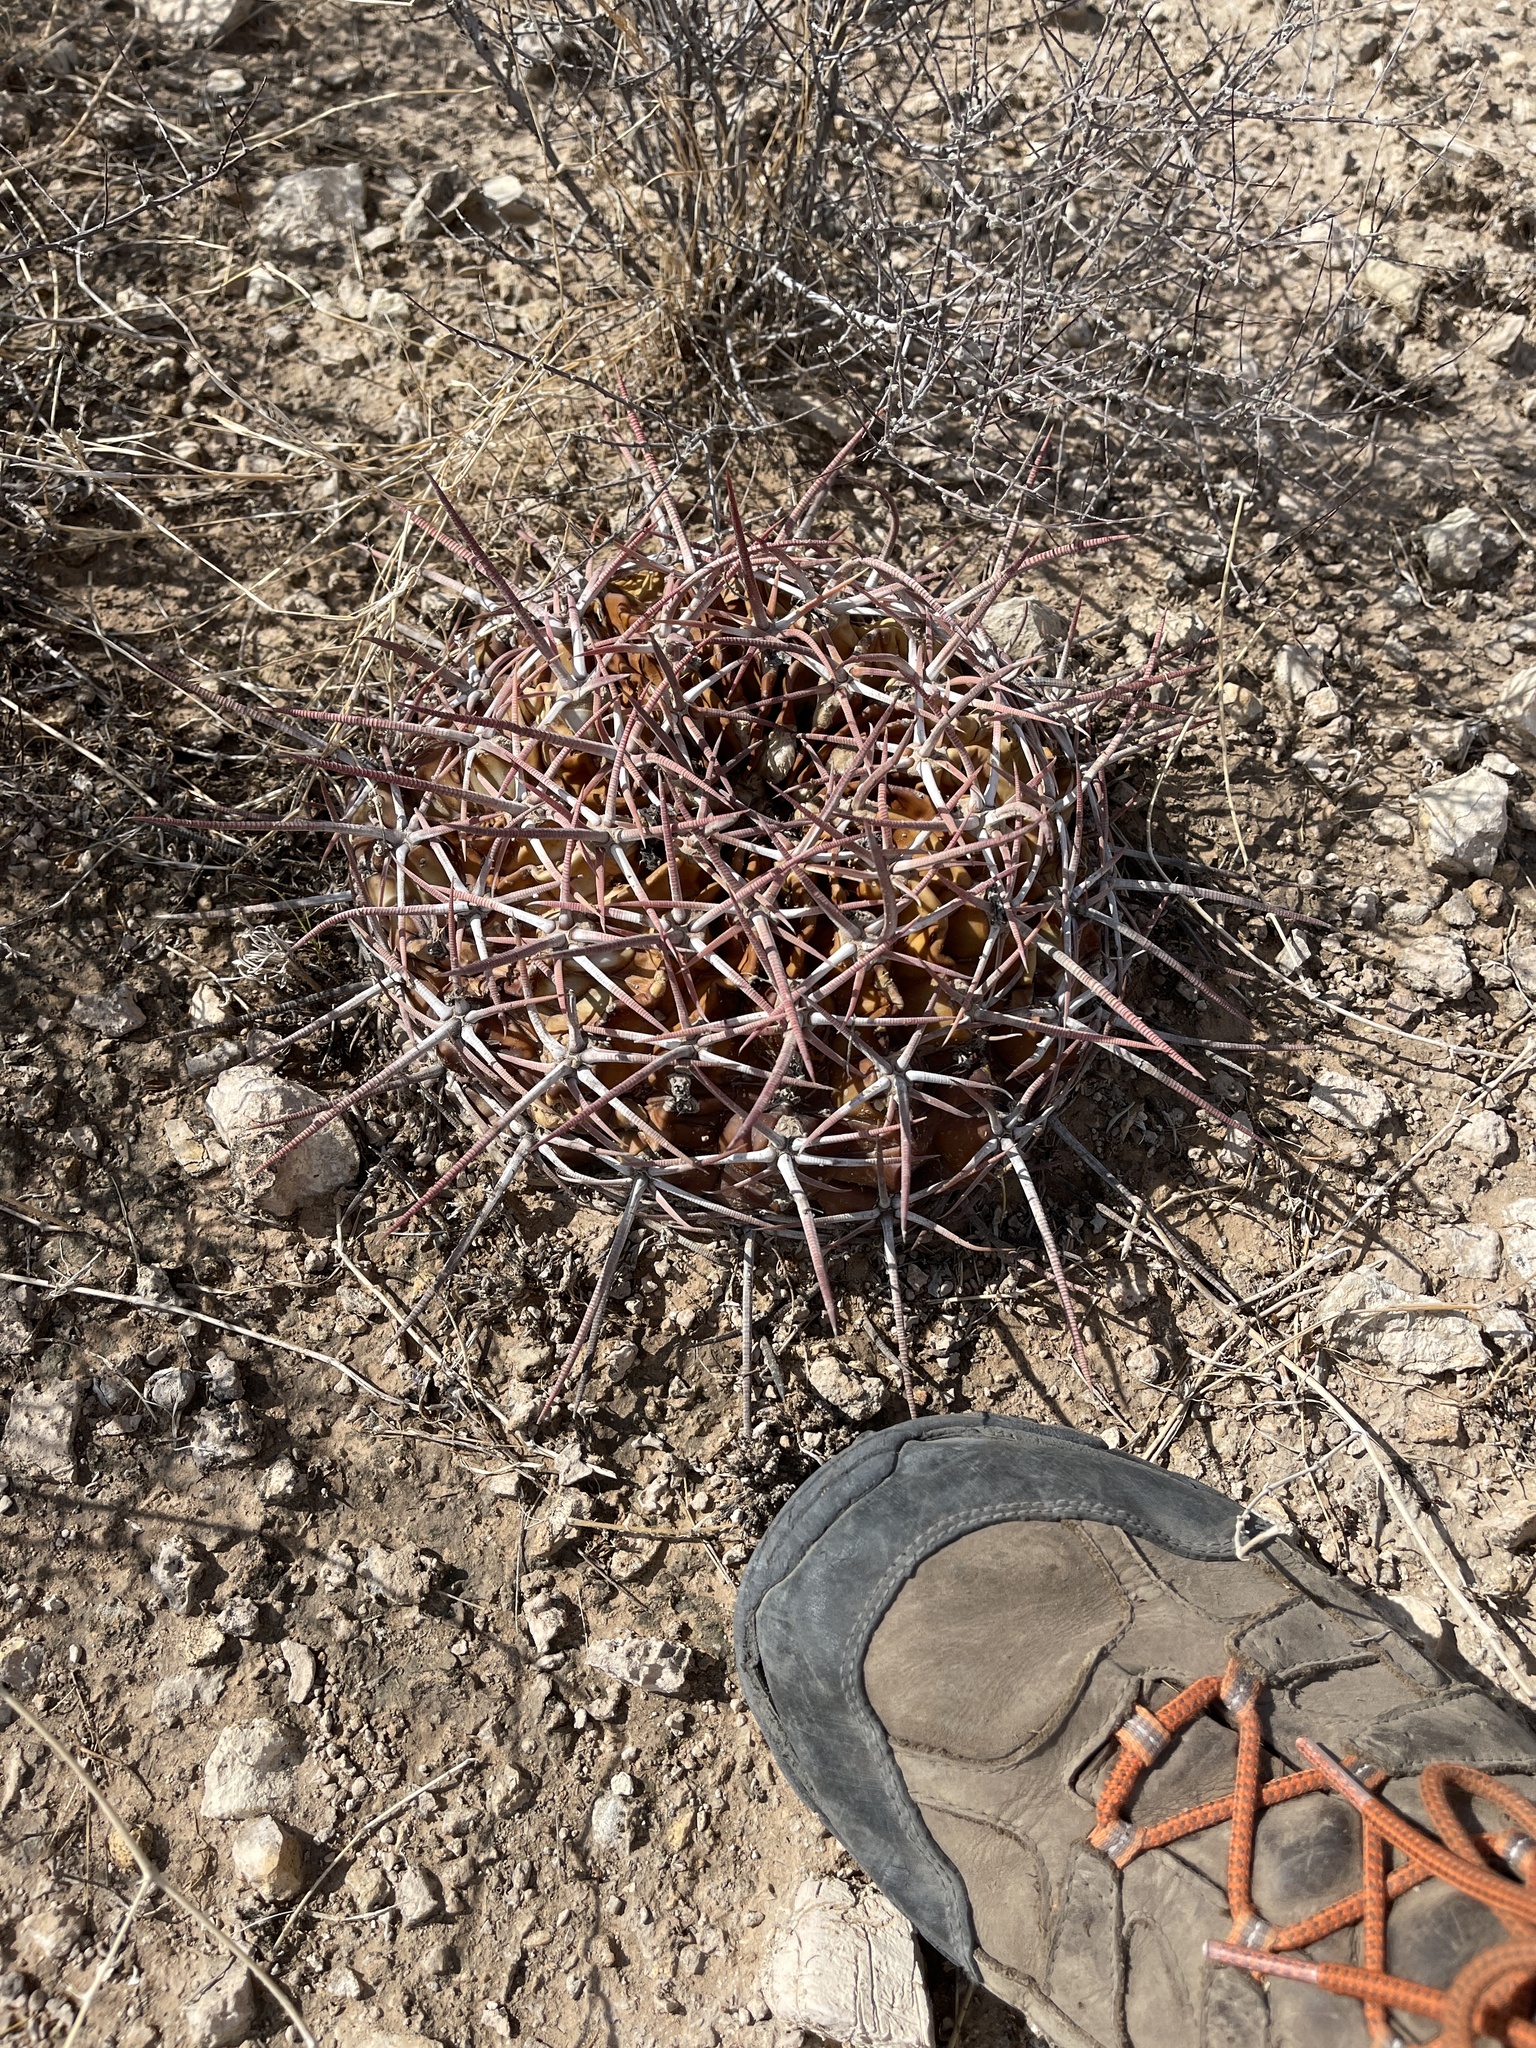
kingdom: Plantae
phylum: Tracheophyta
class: Magnoliopsida
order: Caryophyllales
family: Cactaceae
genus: Echinocactus
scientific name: Echinocactus texensis
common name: Devil's pincushion
